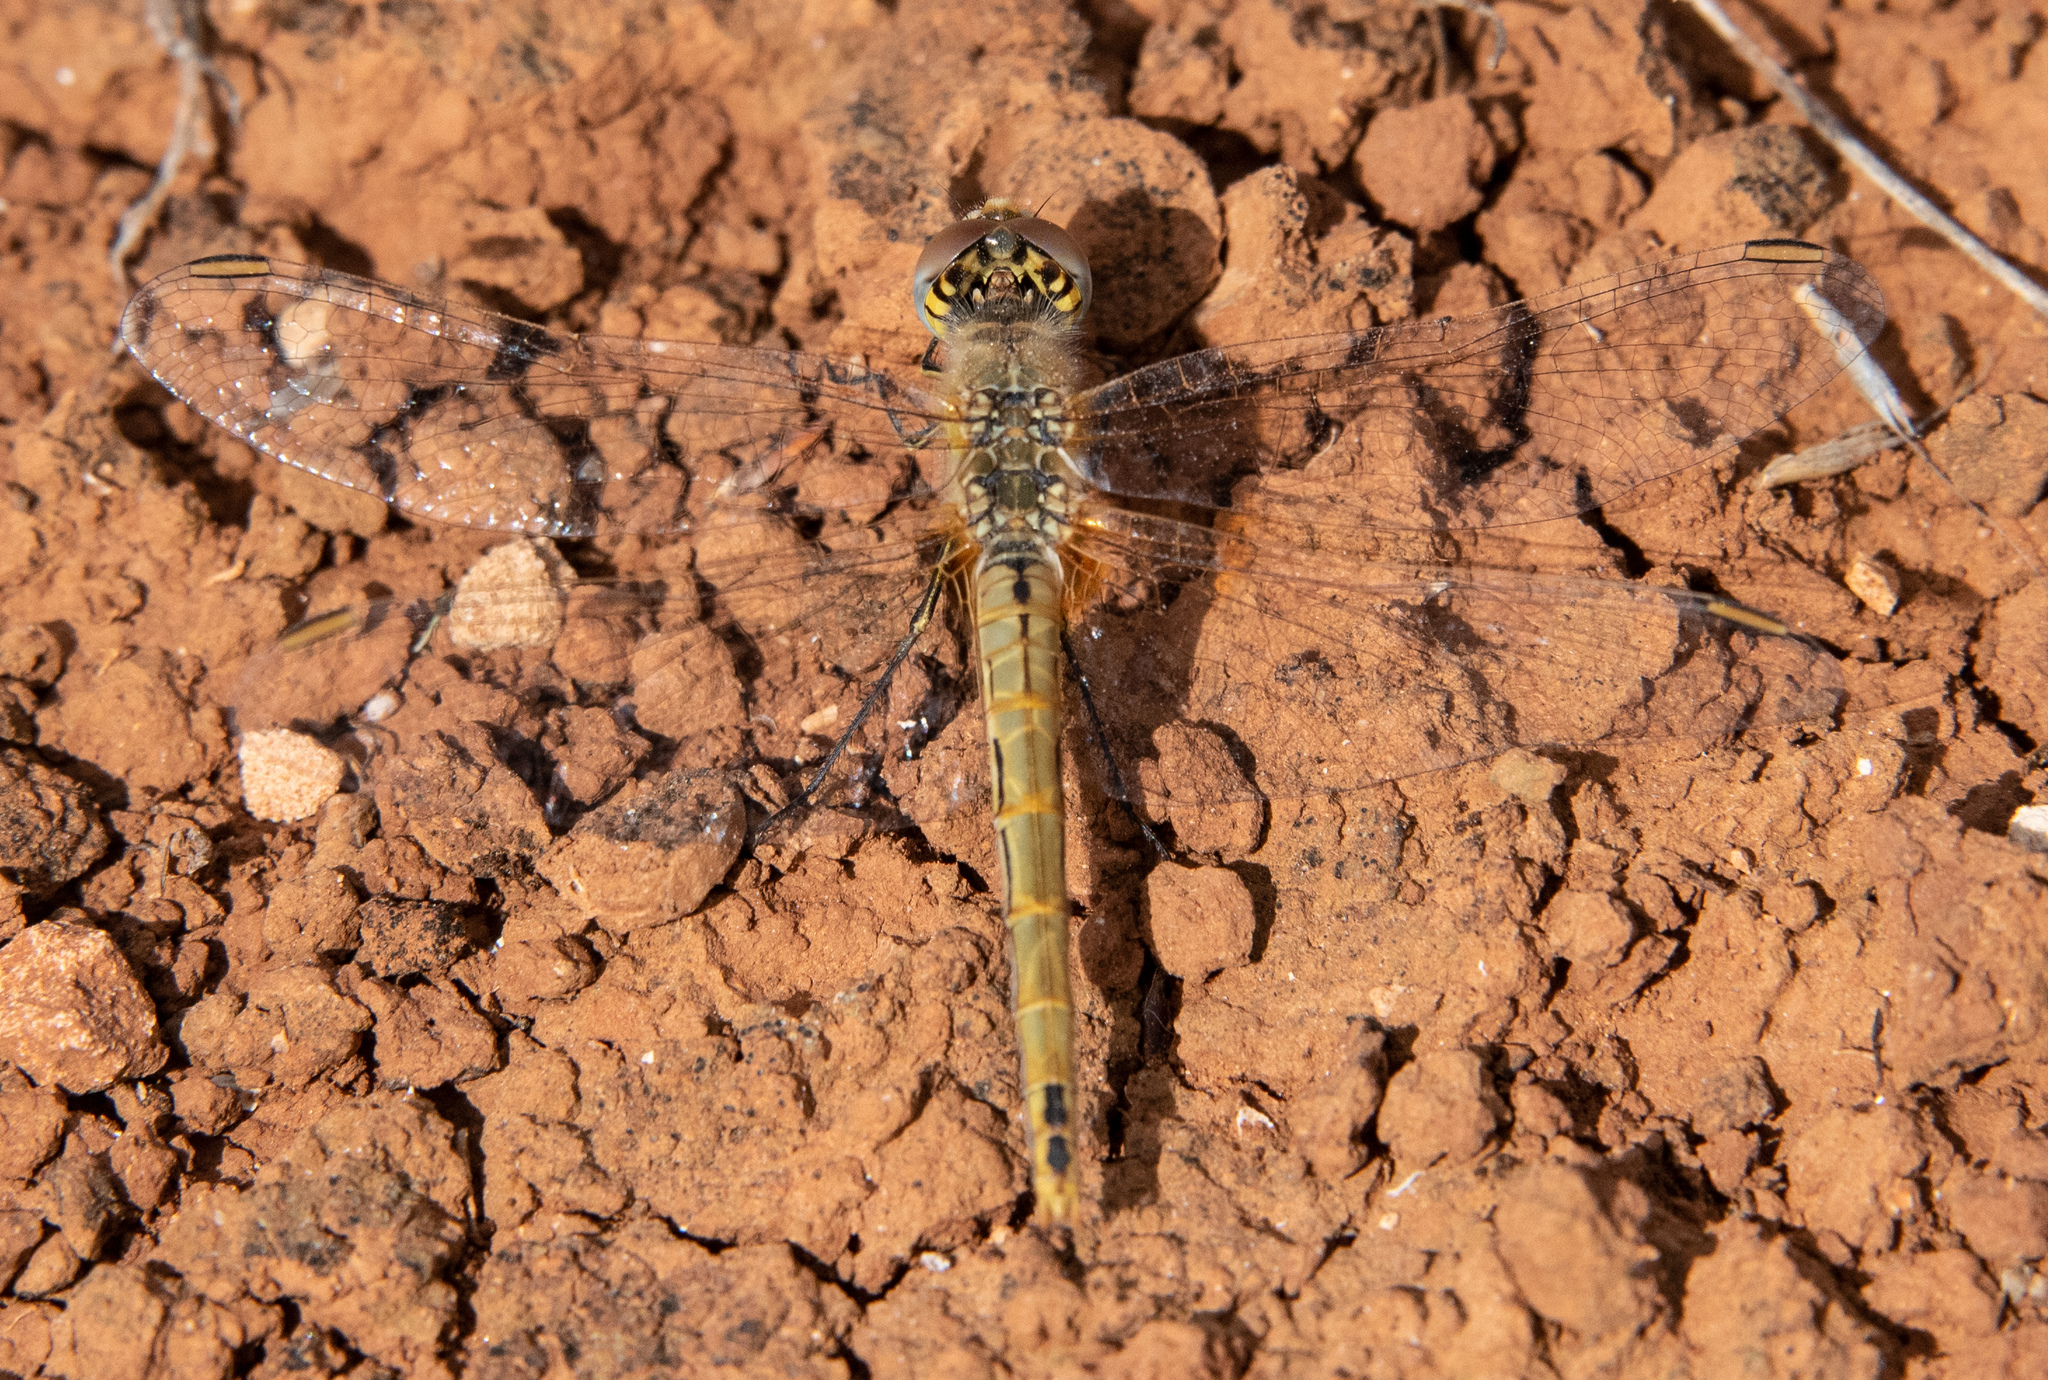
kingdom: Animalia
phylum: Arthropoda
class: Insecta
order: Odonata
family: Libellulidae
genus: Sympetrum
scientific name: Sympetrum fonscolombii
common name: Red-veined darter
